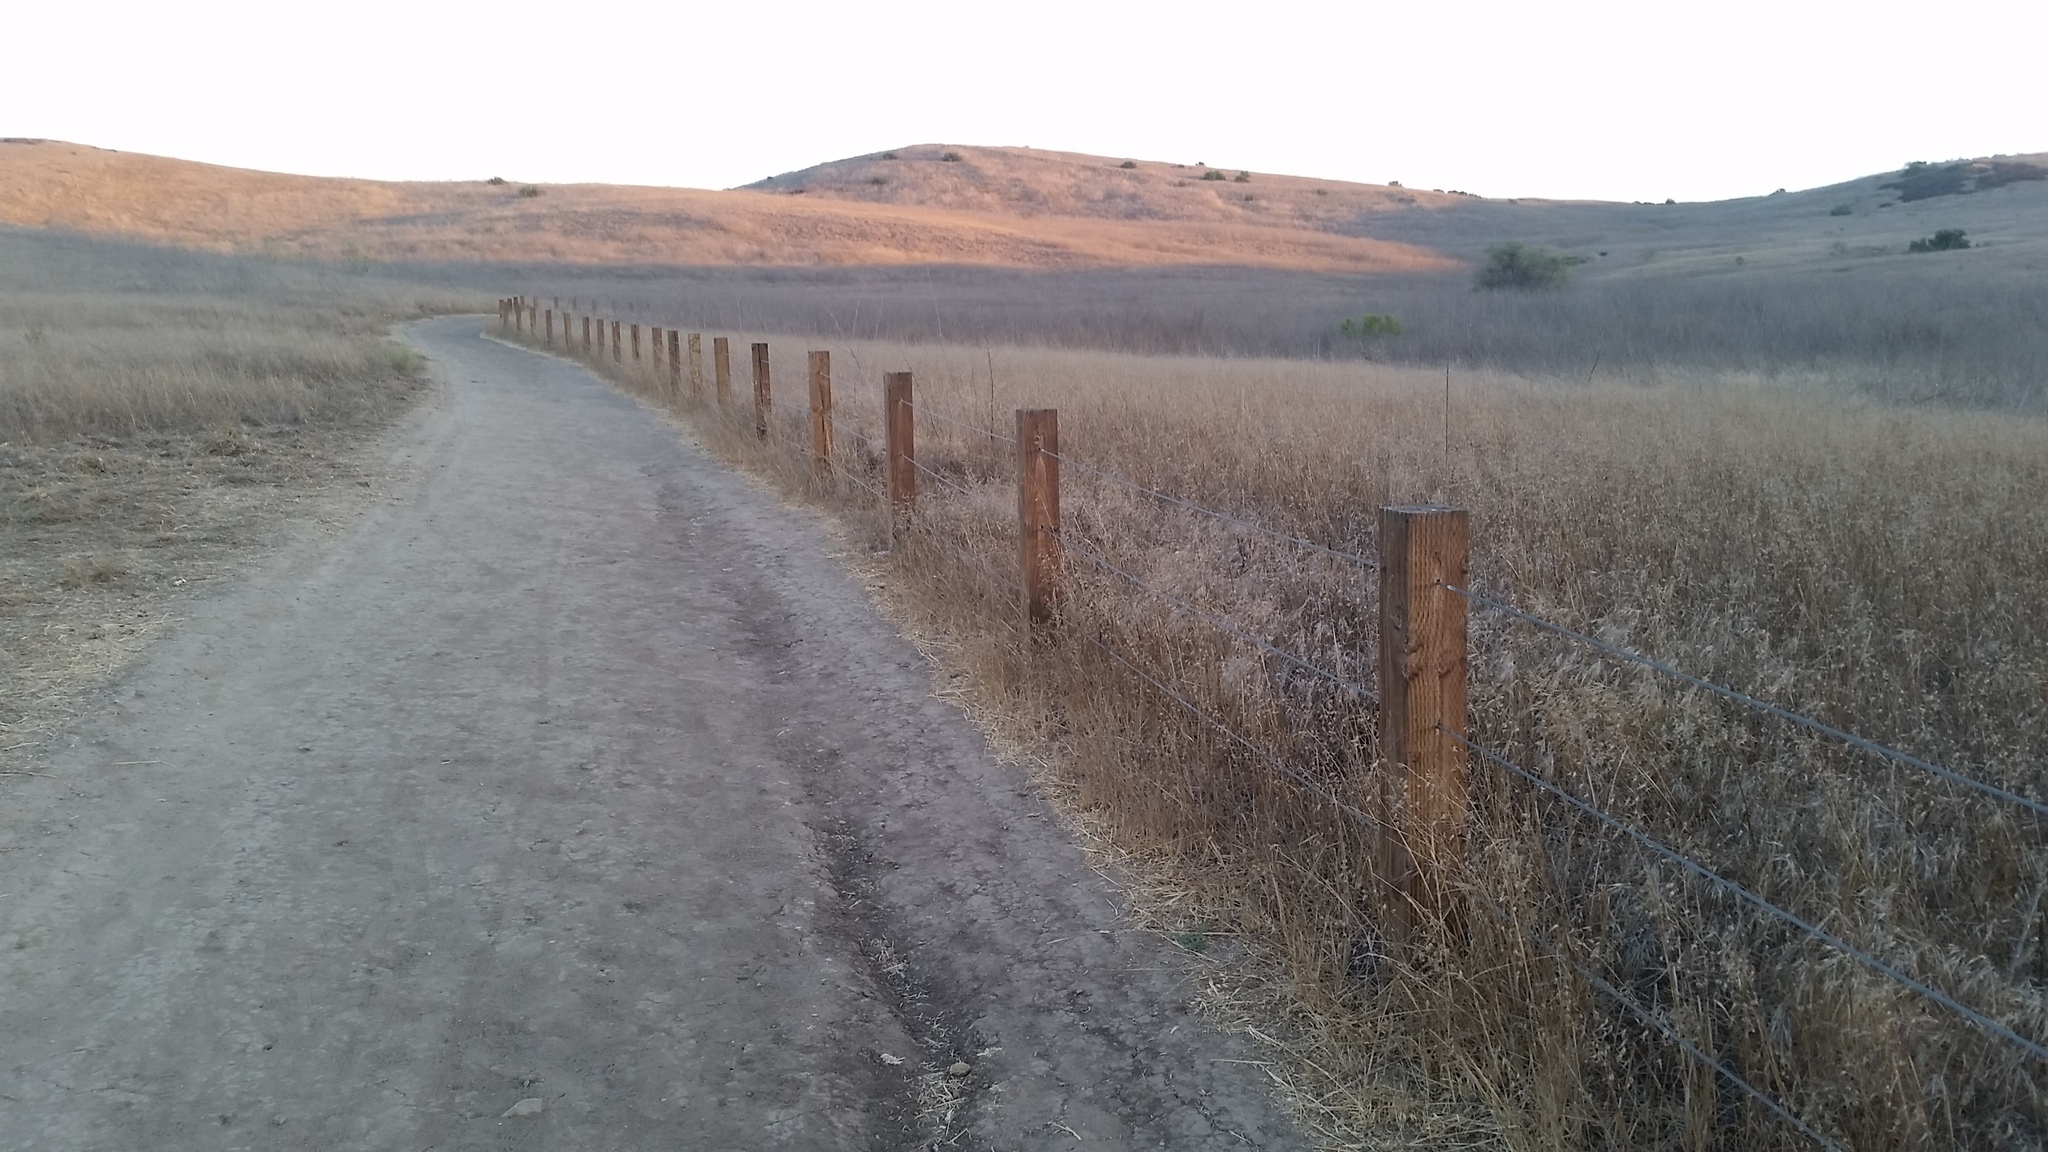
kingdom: Animalia
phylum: Chordata
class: Squamata
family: Colubridae
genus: Lampropeltis
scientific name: Lampropeltis californiae
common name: California kingsnake
